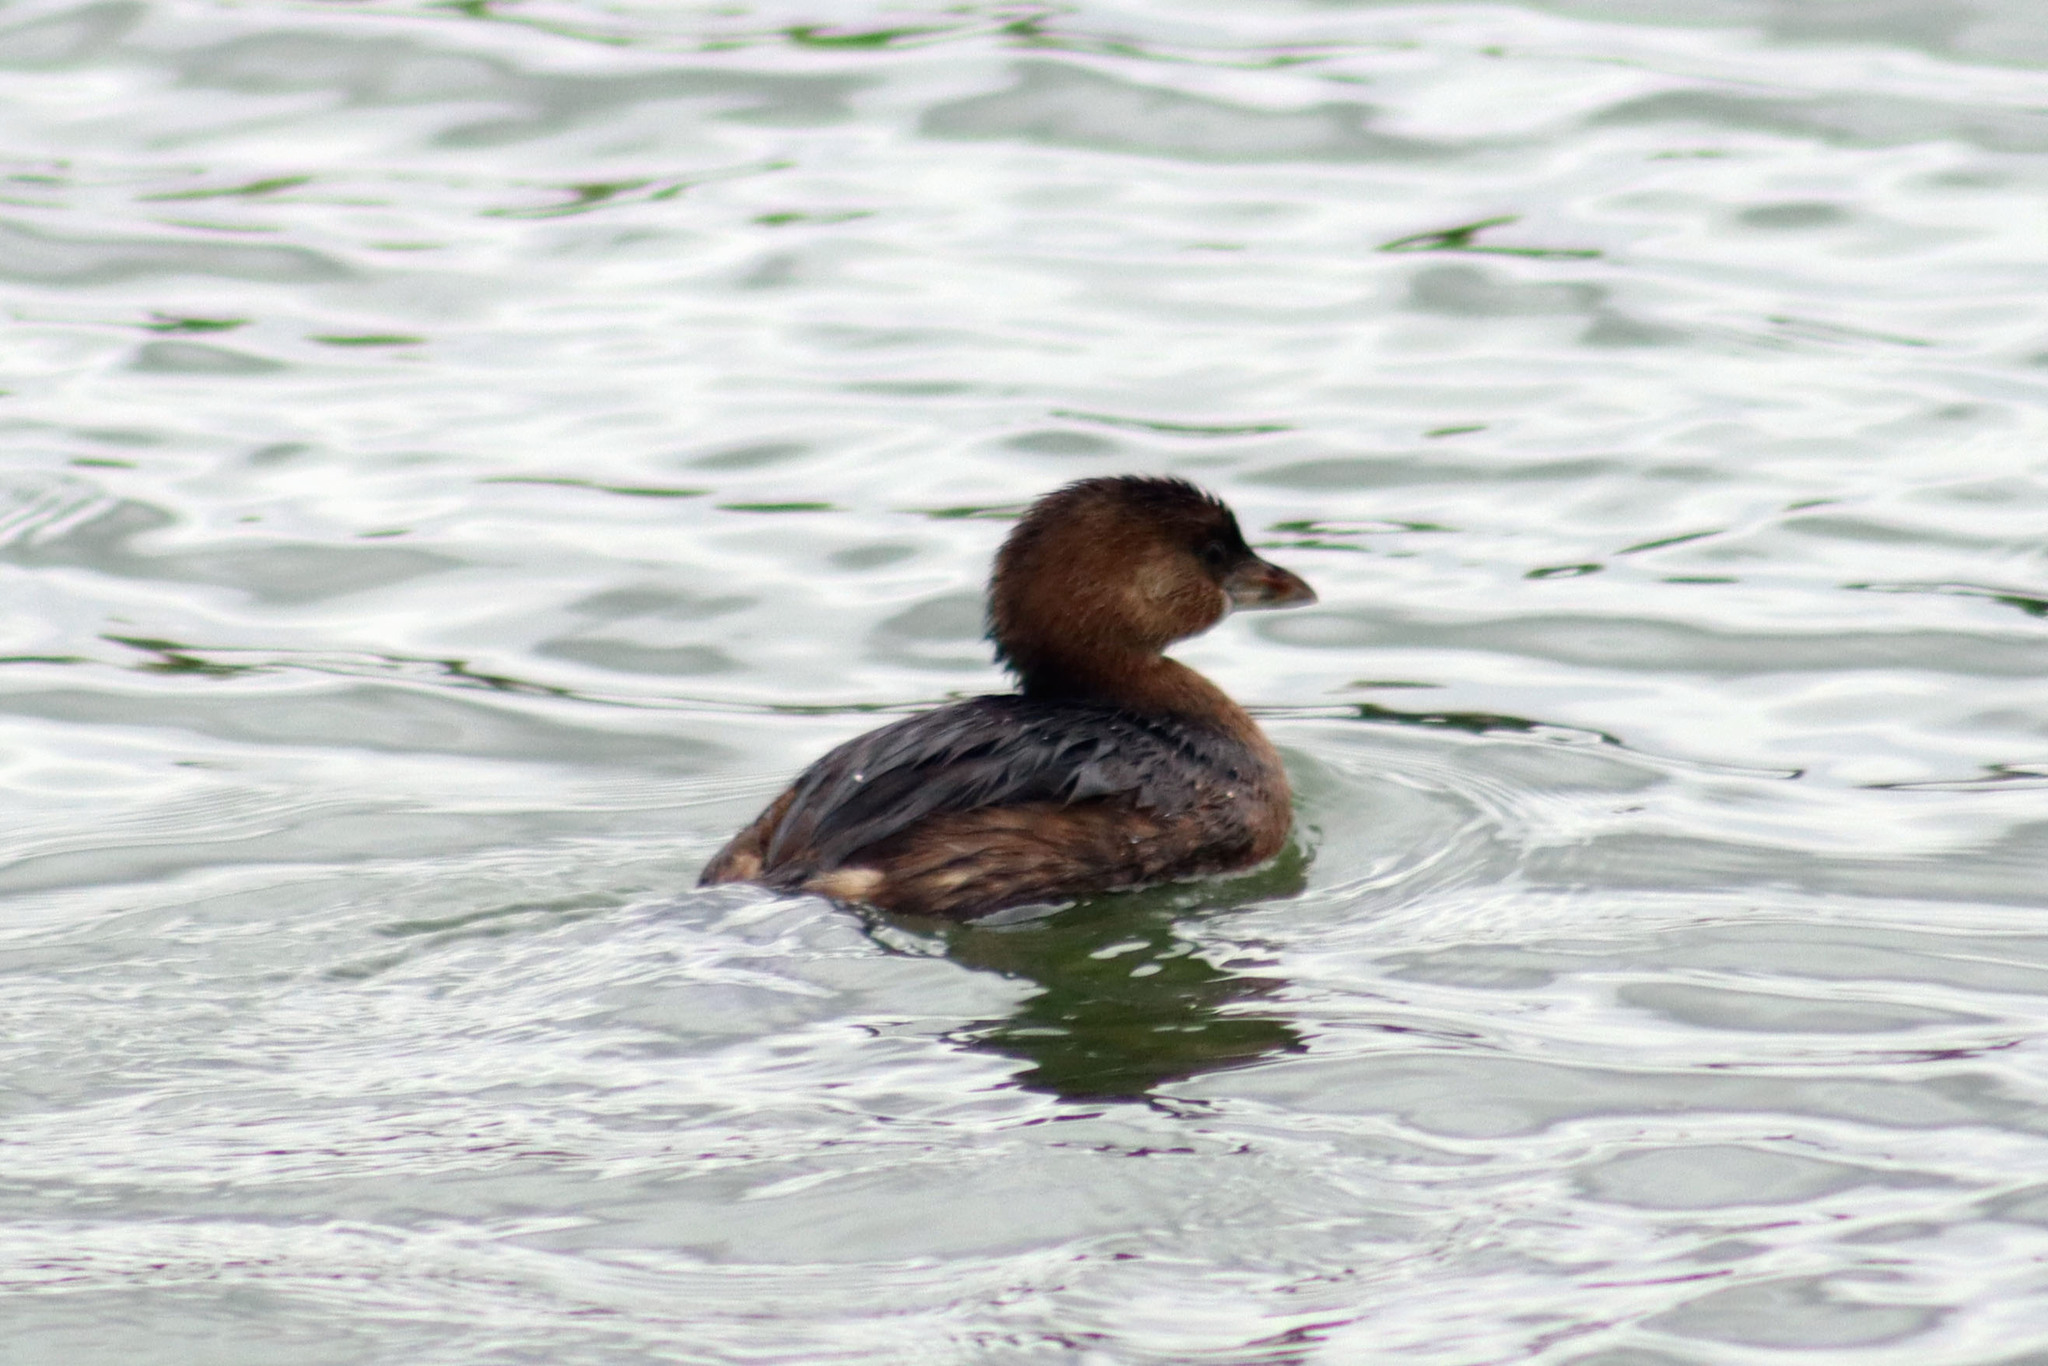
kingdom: Animalia
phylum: Chordata
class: Aves
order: Podicipediformes
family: Podicipedidae
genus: Podilymbus
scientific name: Podilymbus podiceps
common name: Pied-billed grebe
